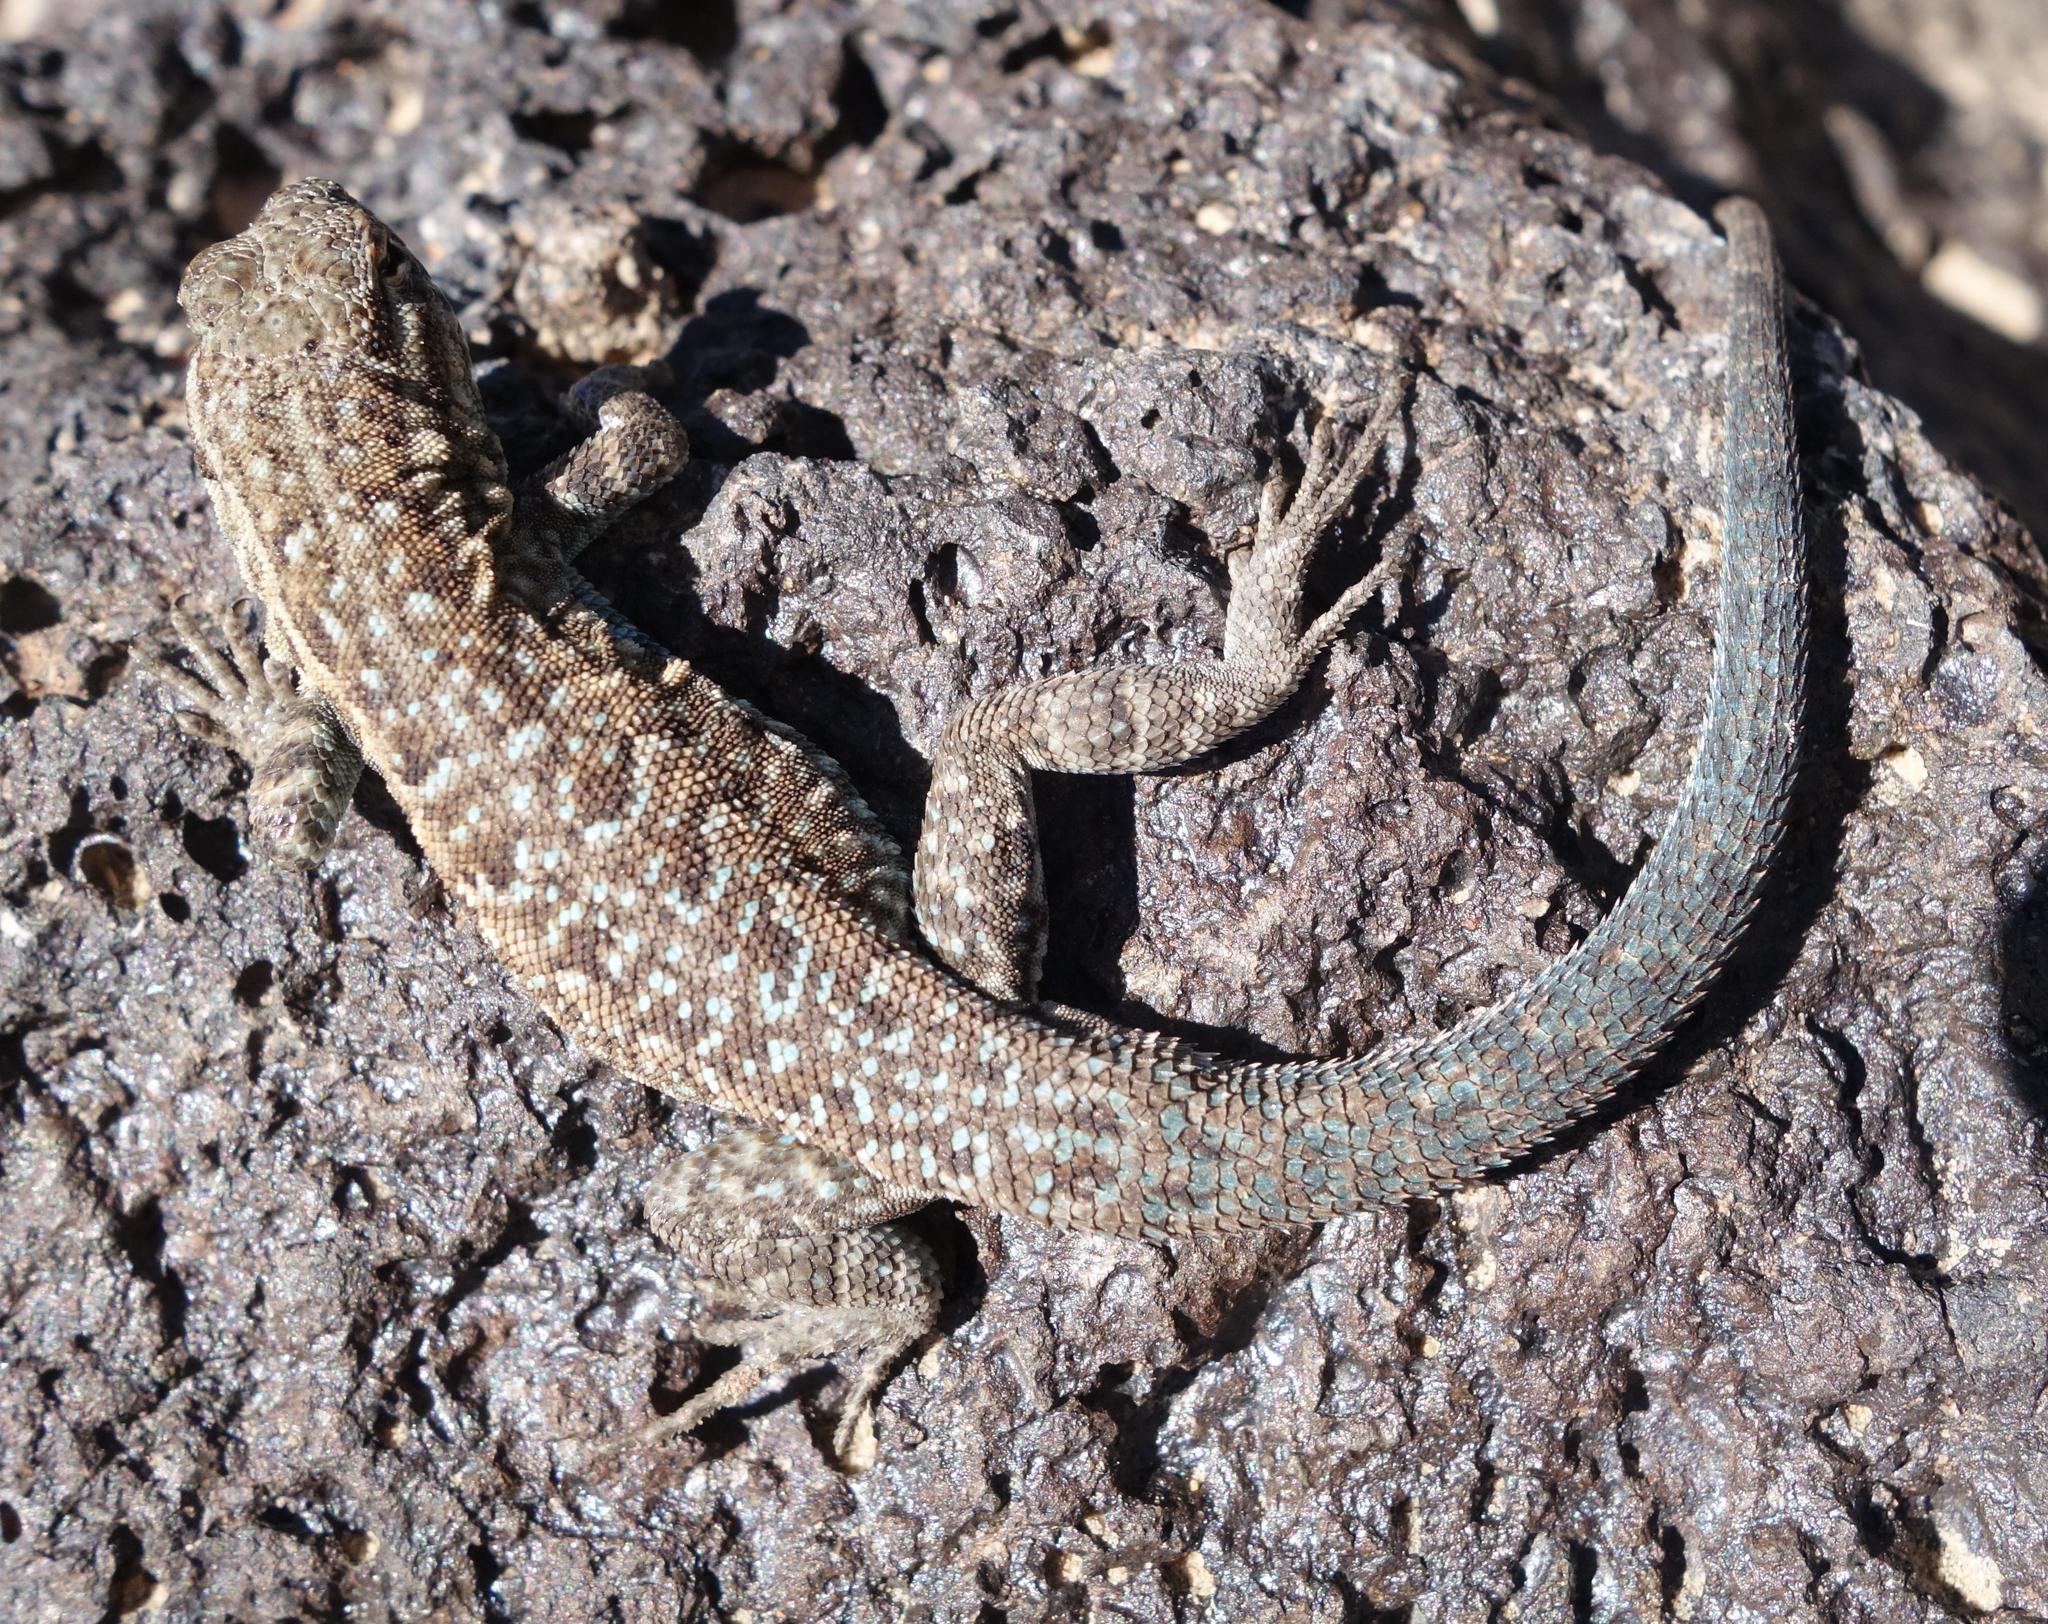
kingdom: Animalia
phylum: Chordata
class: Squamata
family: Phrynosomatidae
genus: Uta
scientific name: Uta stansburiana
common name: Side-blotched lizard
